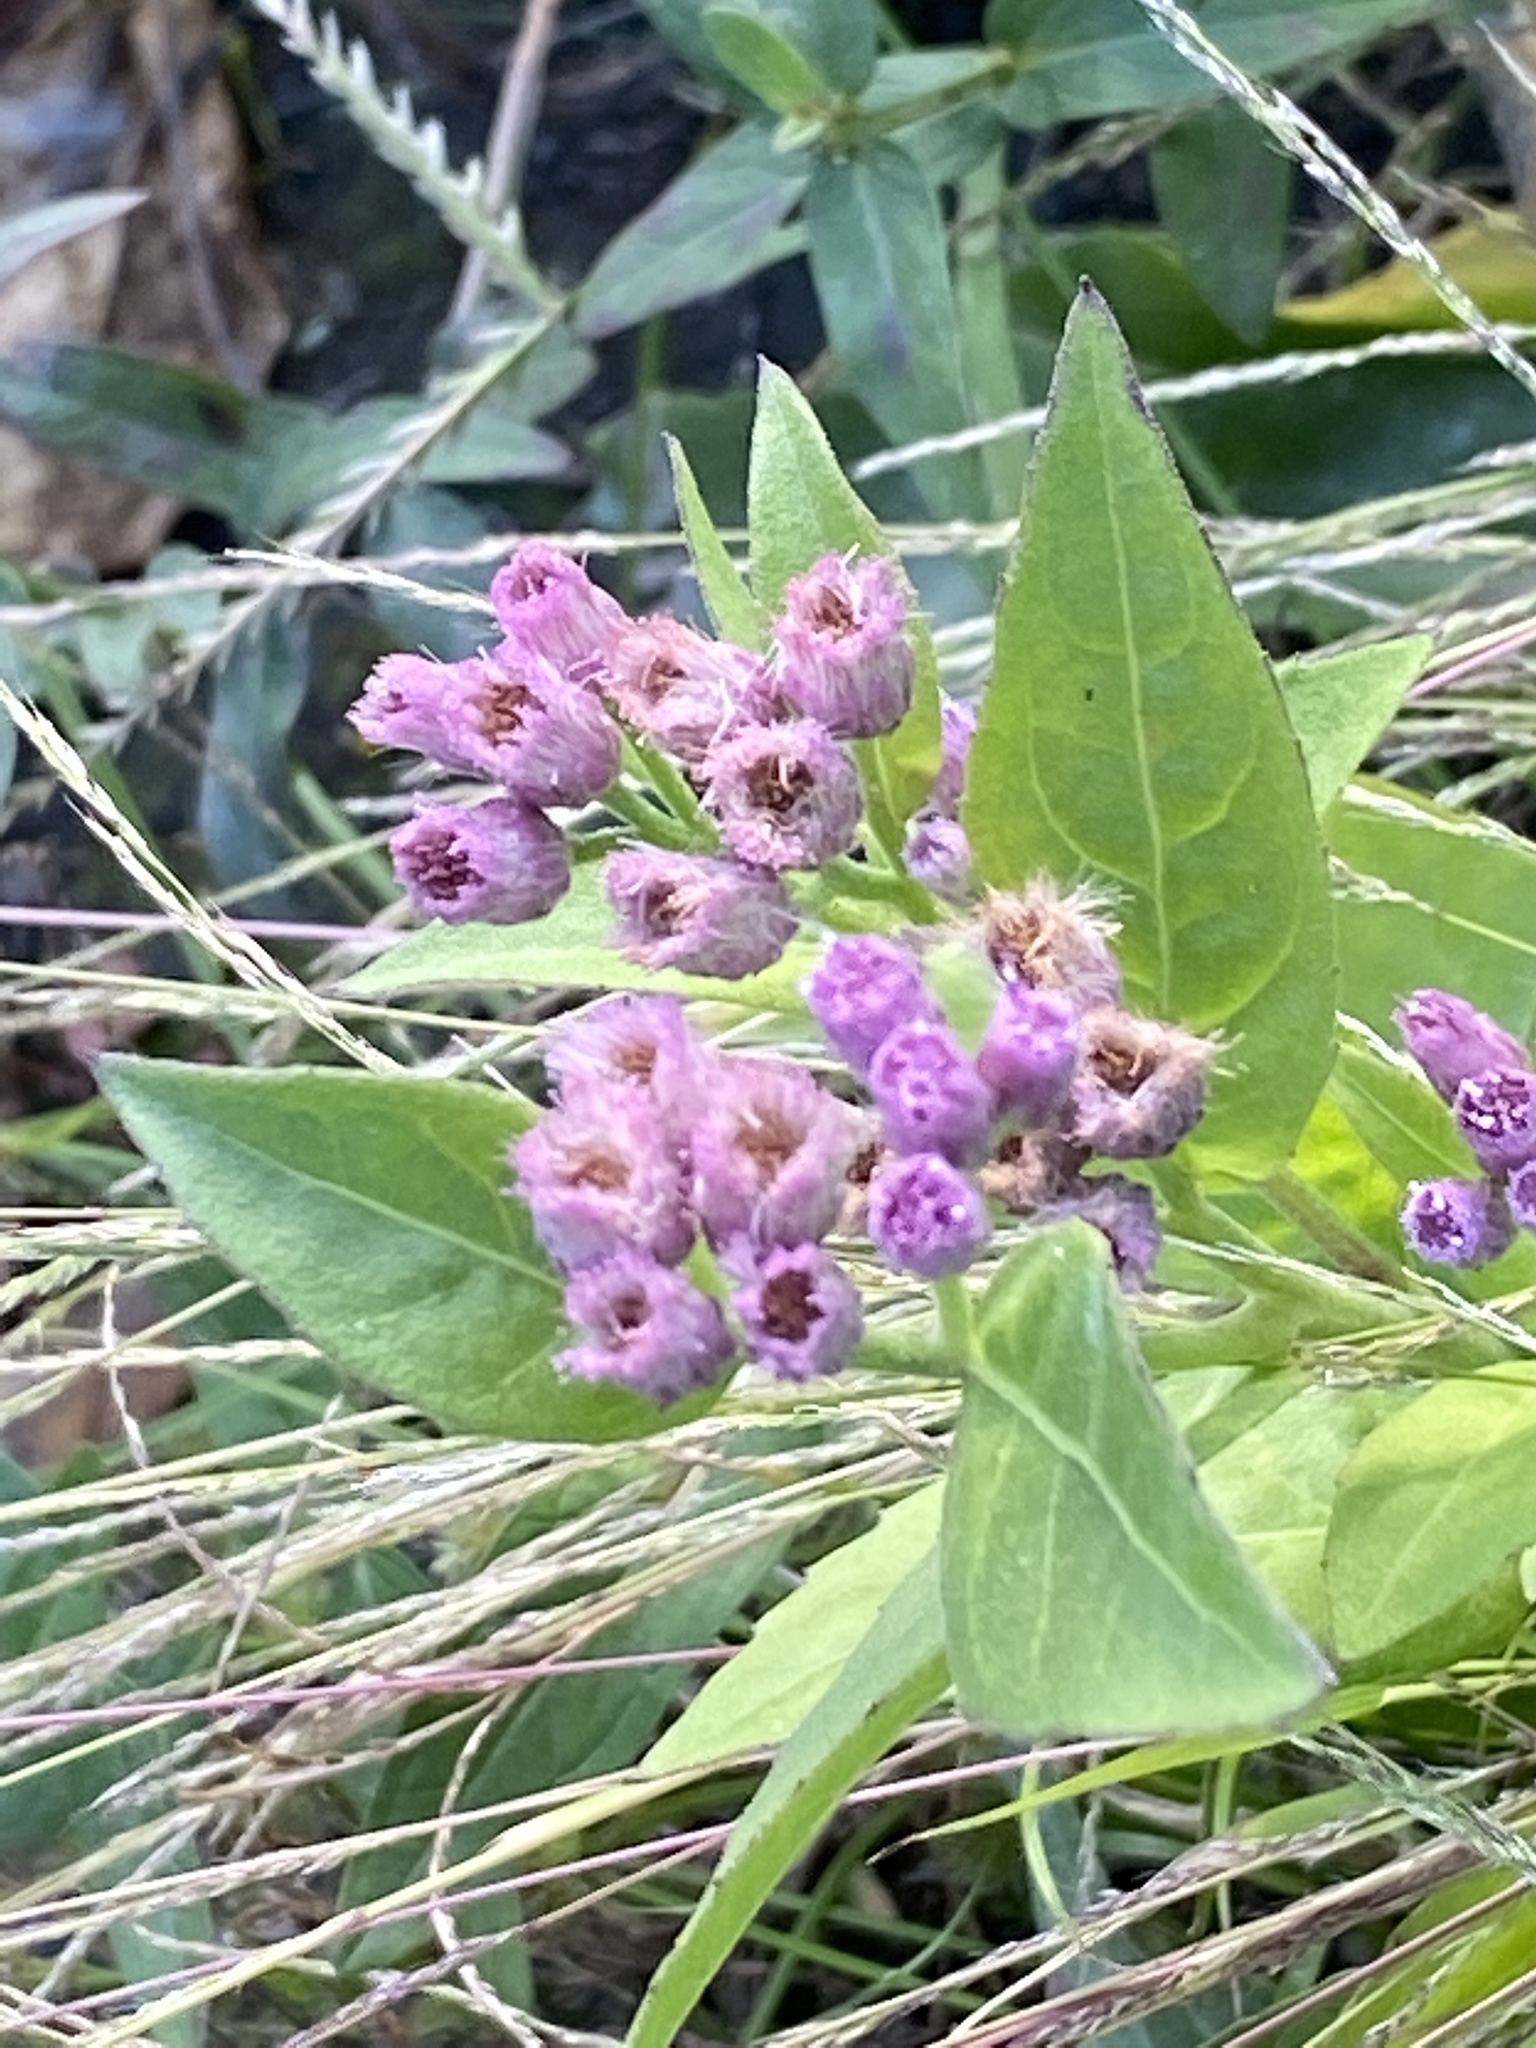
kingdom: Plantae
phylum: Tracheophyta
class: Magnoliopsida
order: Asterales
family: Asteraceae
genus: Pluchea
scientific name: Pluchea odorata
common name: Saltmarsh fleabane
